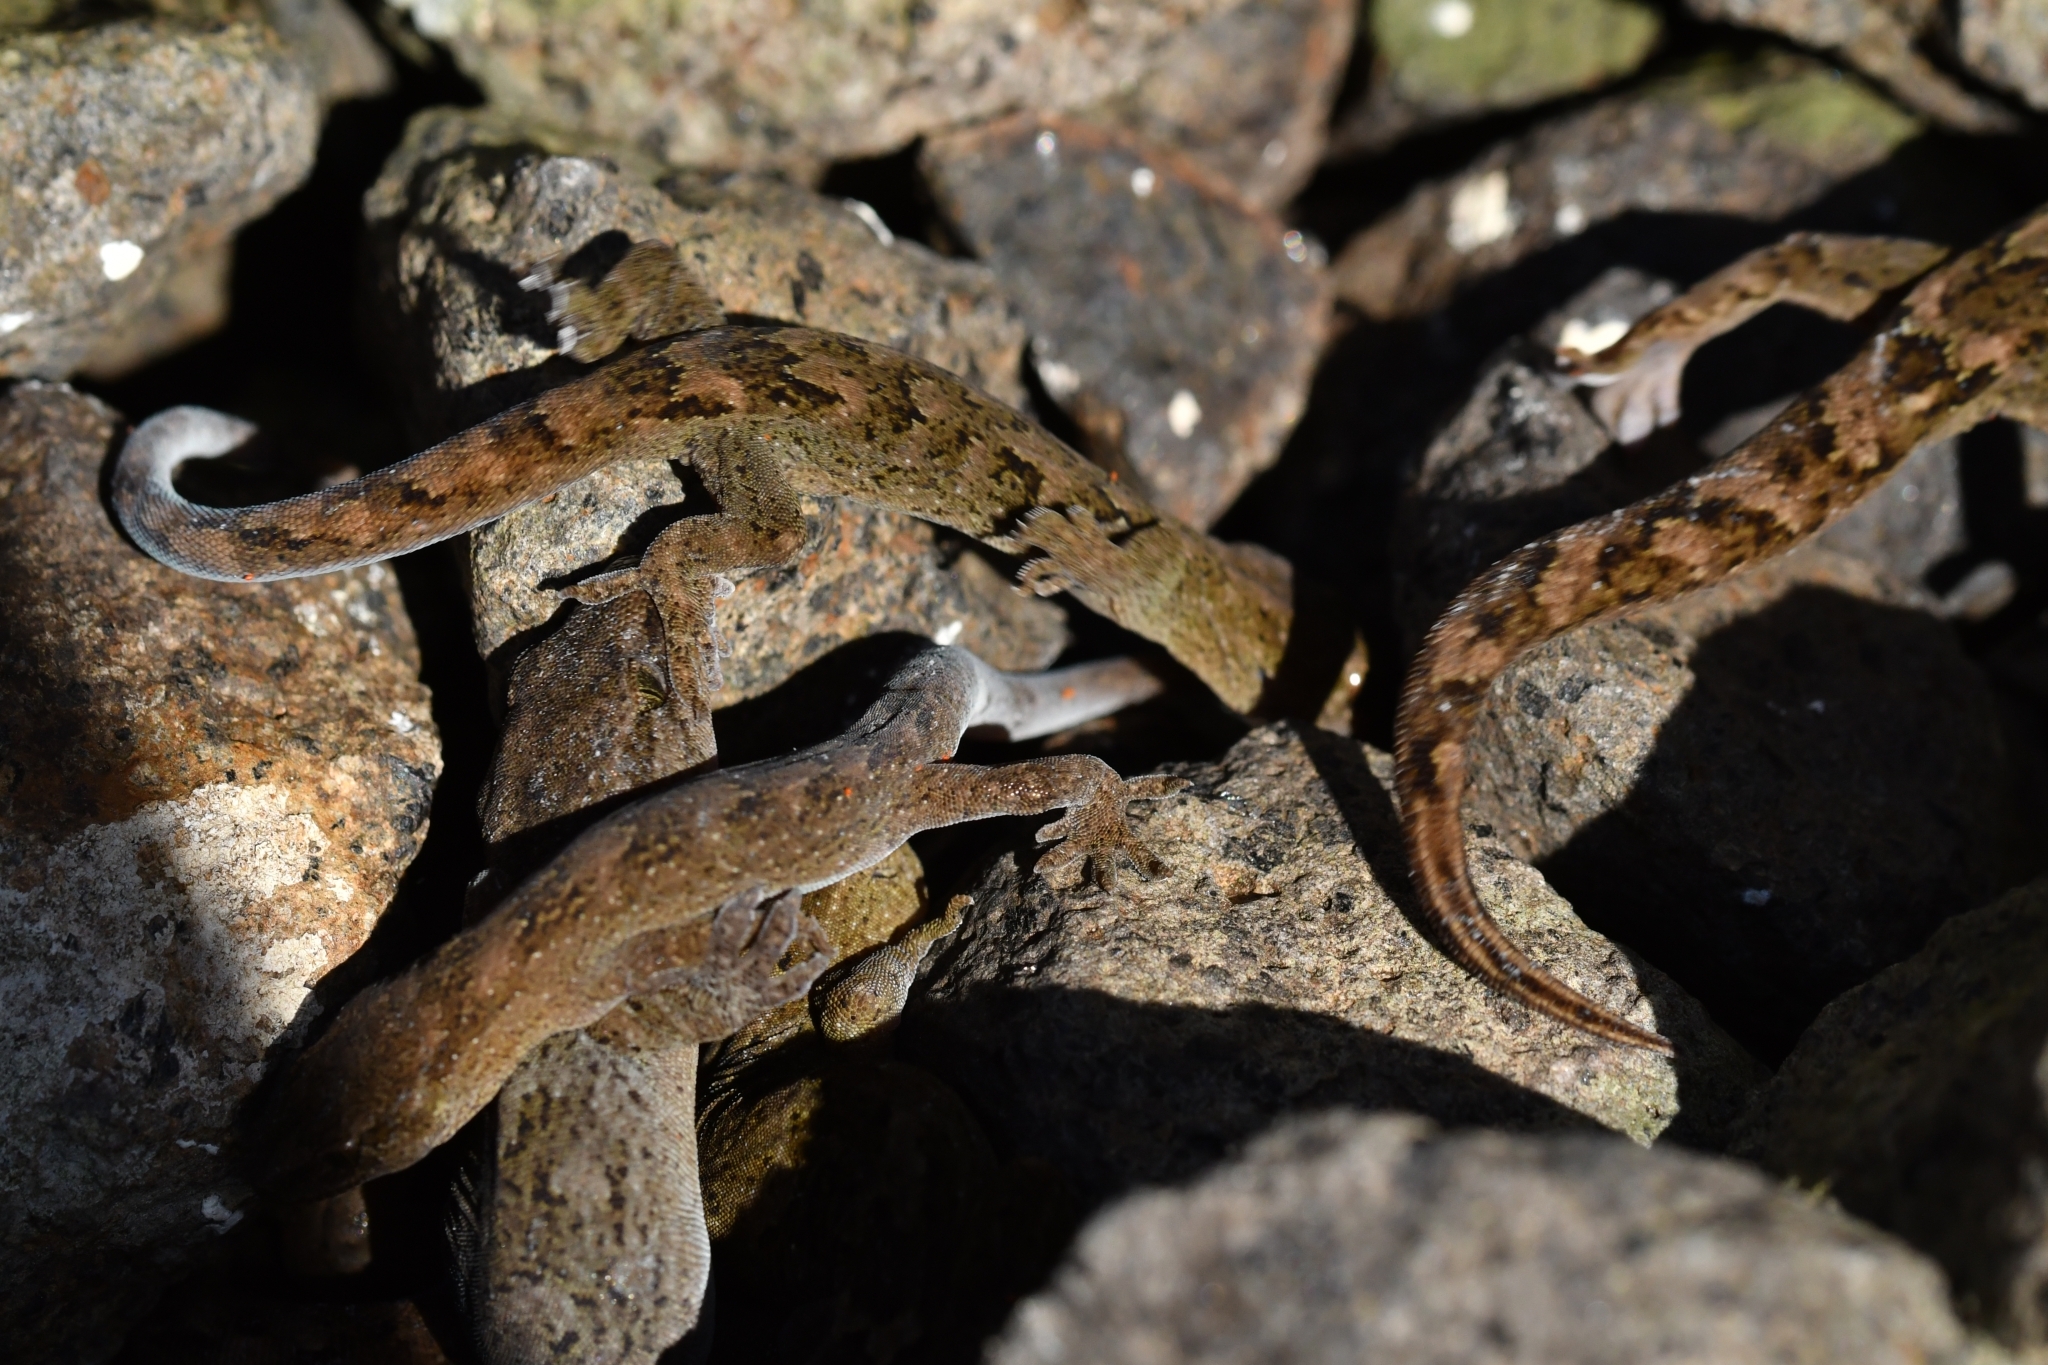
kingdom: Animalia
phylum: Chordata
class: Squamata
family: Diplodactylidae
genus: Woodworthia
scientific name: Woodworthia
